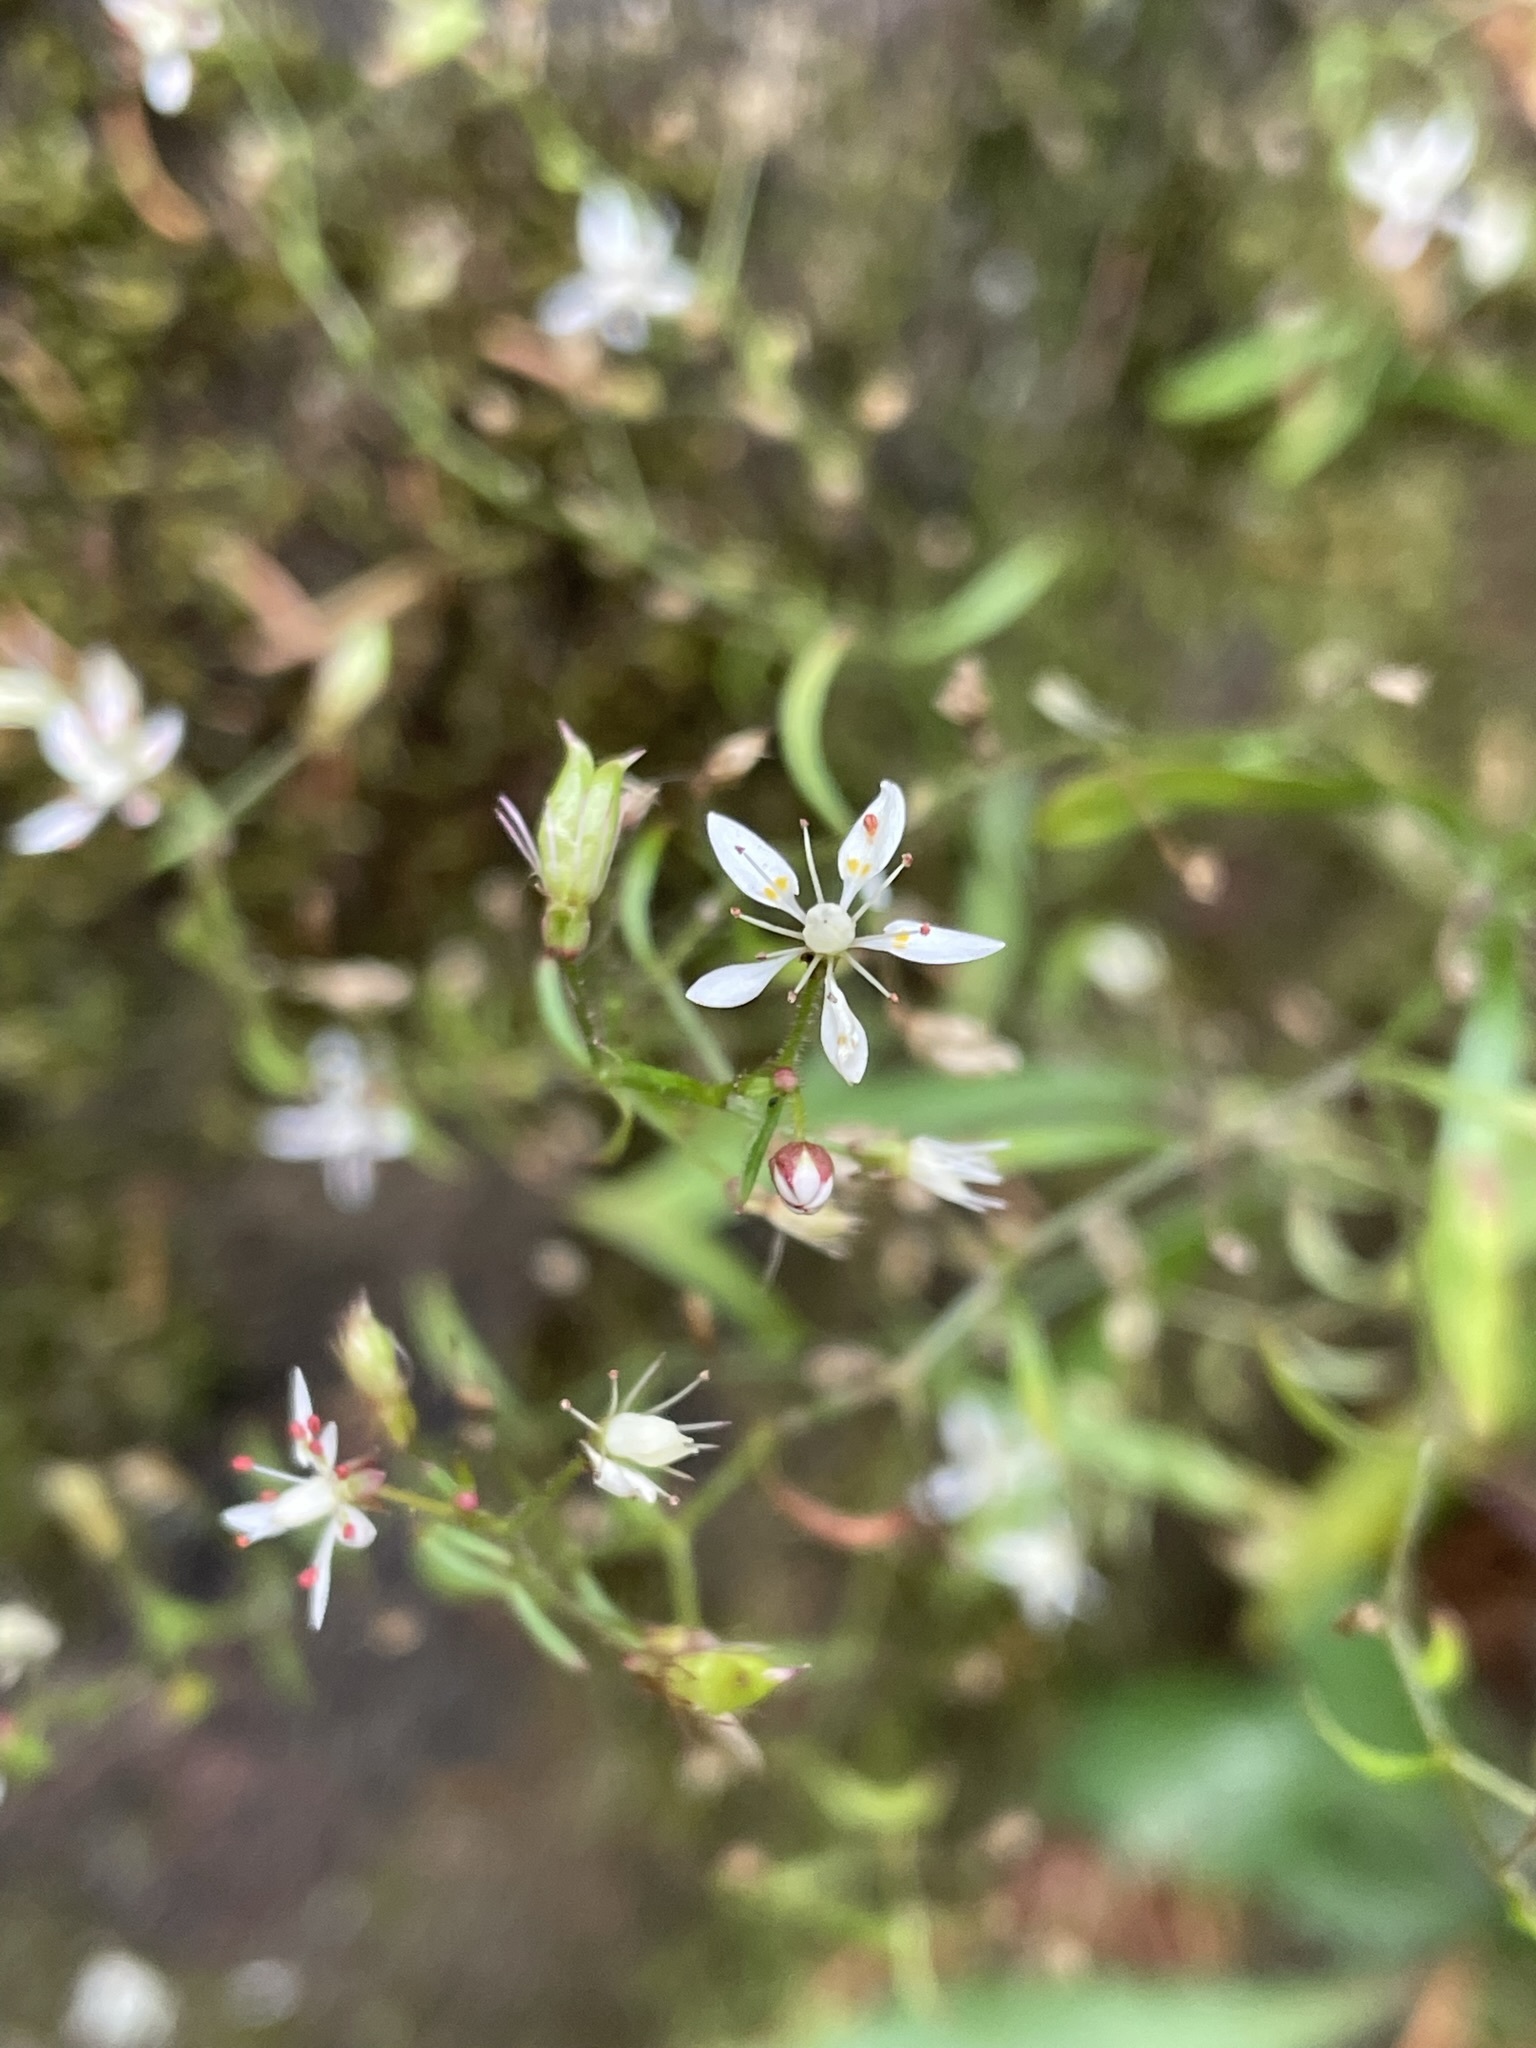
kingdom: Plantae
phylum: Tracheophyta
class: Magnoliopsida
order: Saxifragales
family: Saxifragaceae
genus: Micranthes
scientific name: Micranthes petiolaris
